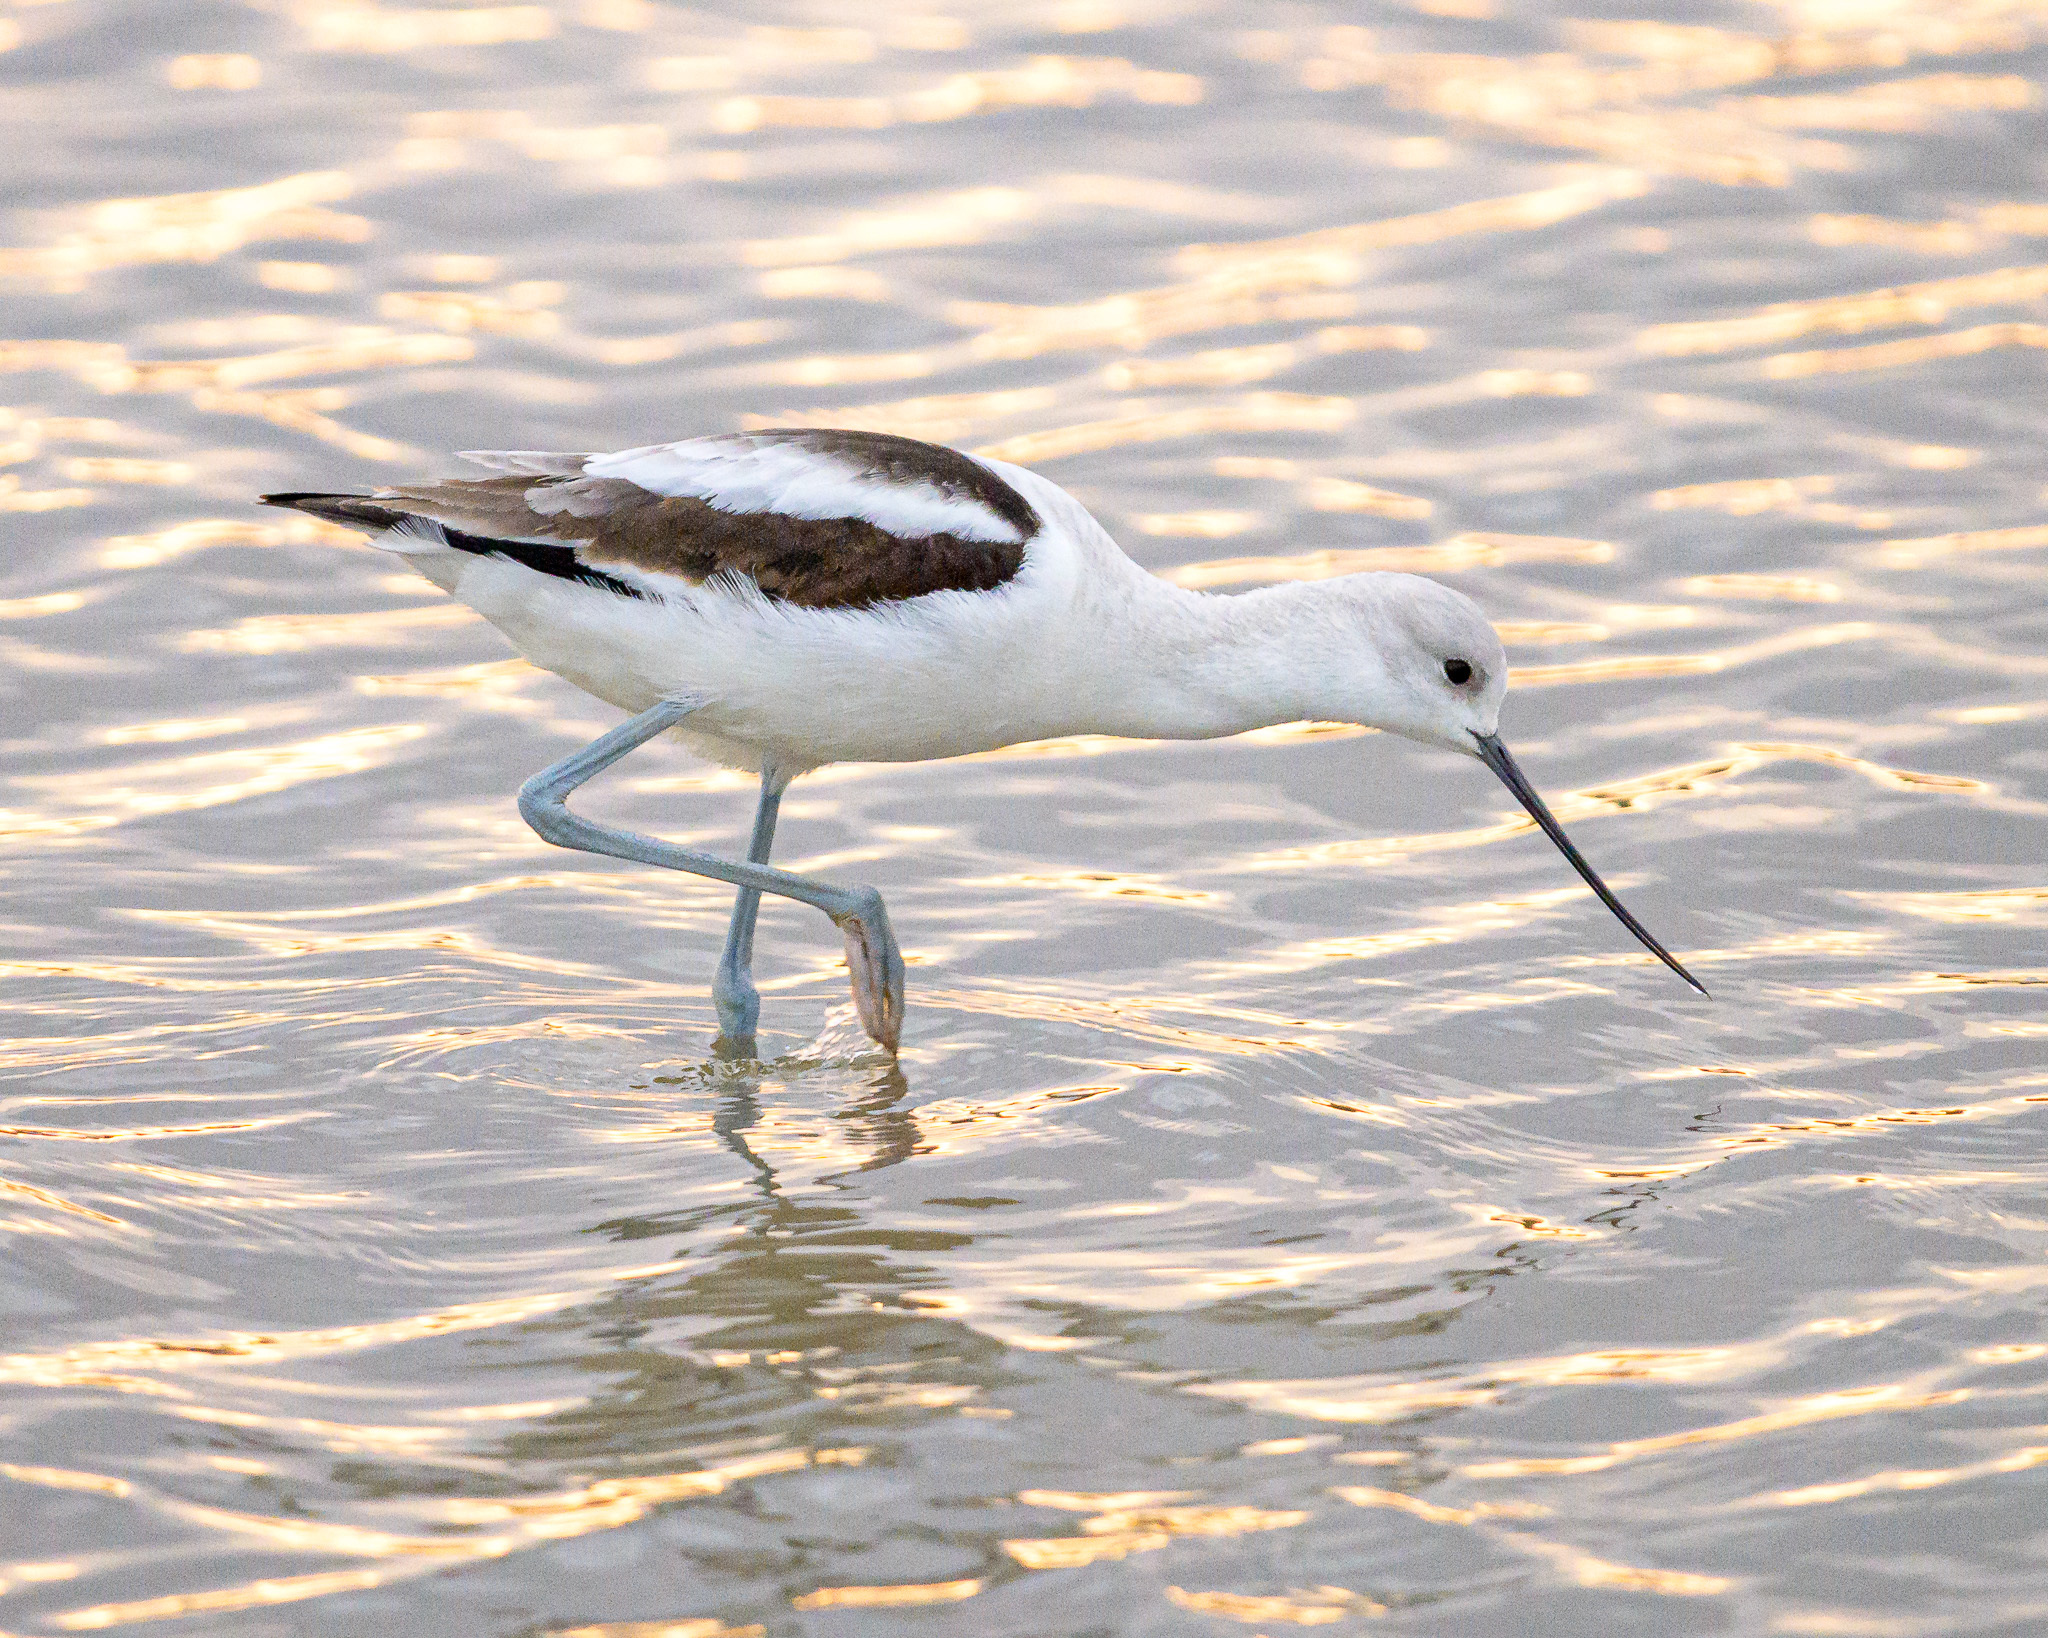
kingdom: Animalia
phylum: Chordata
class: Aves
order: Charadriiformes
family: Recurvirostridae
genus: Recurvirostra
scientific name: Recurvirostra americana
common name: American avocet
